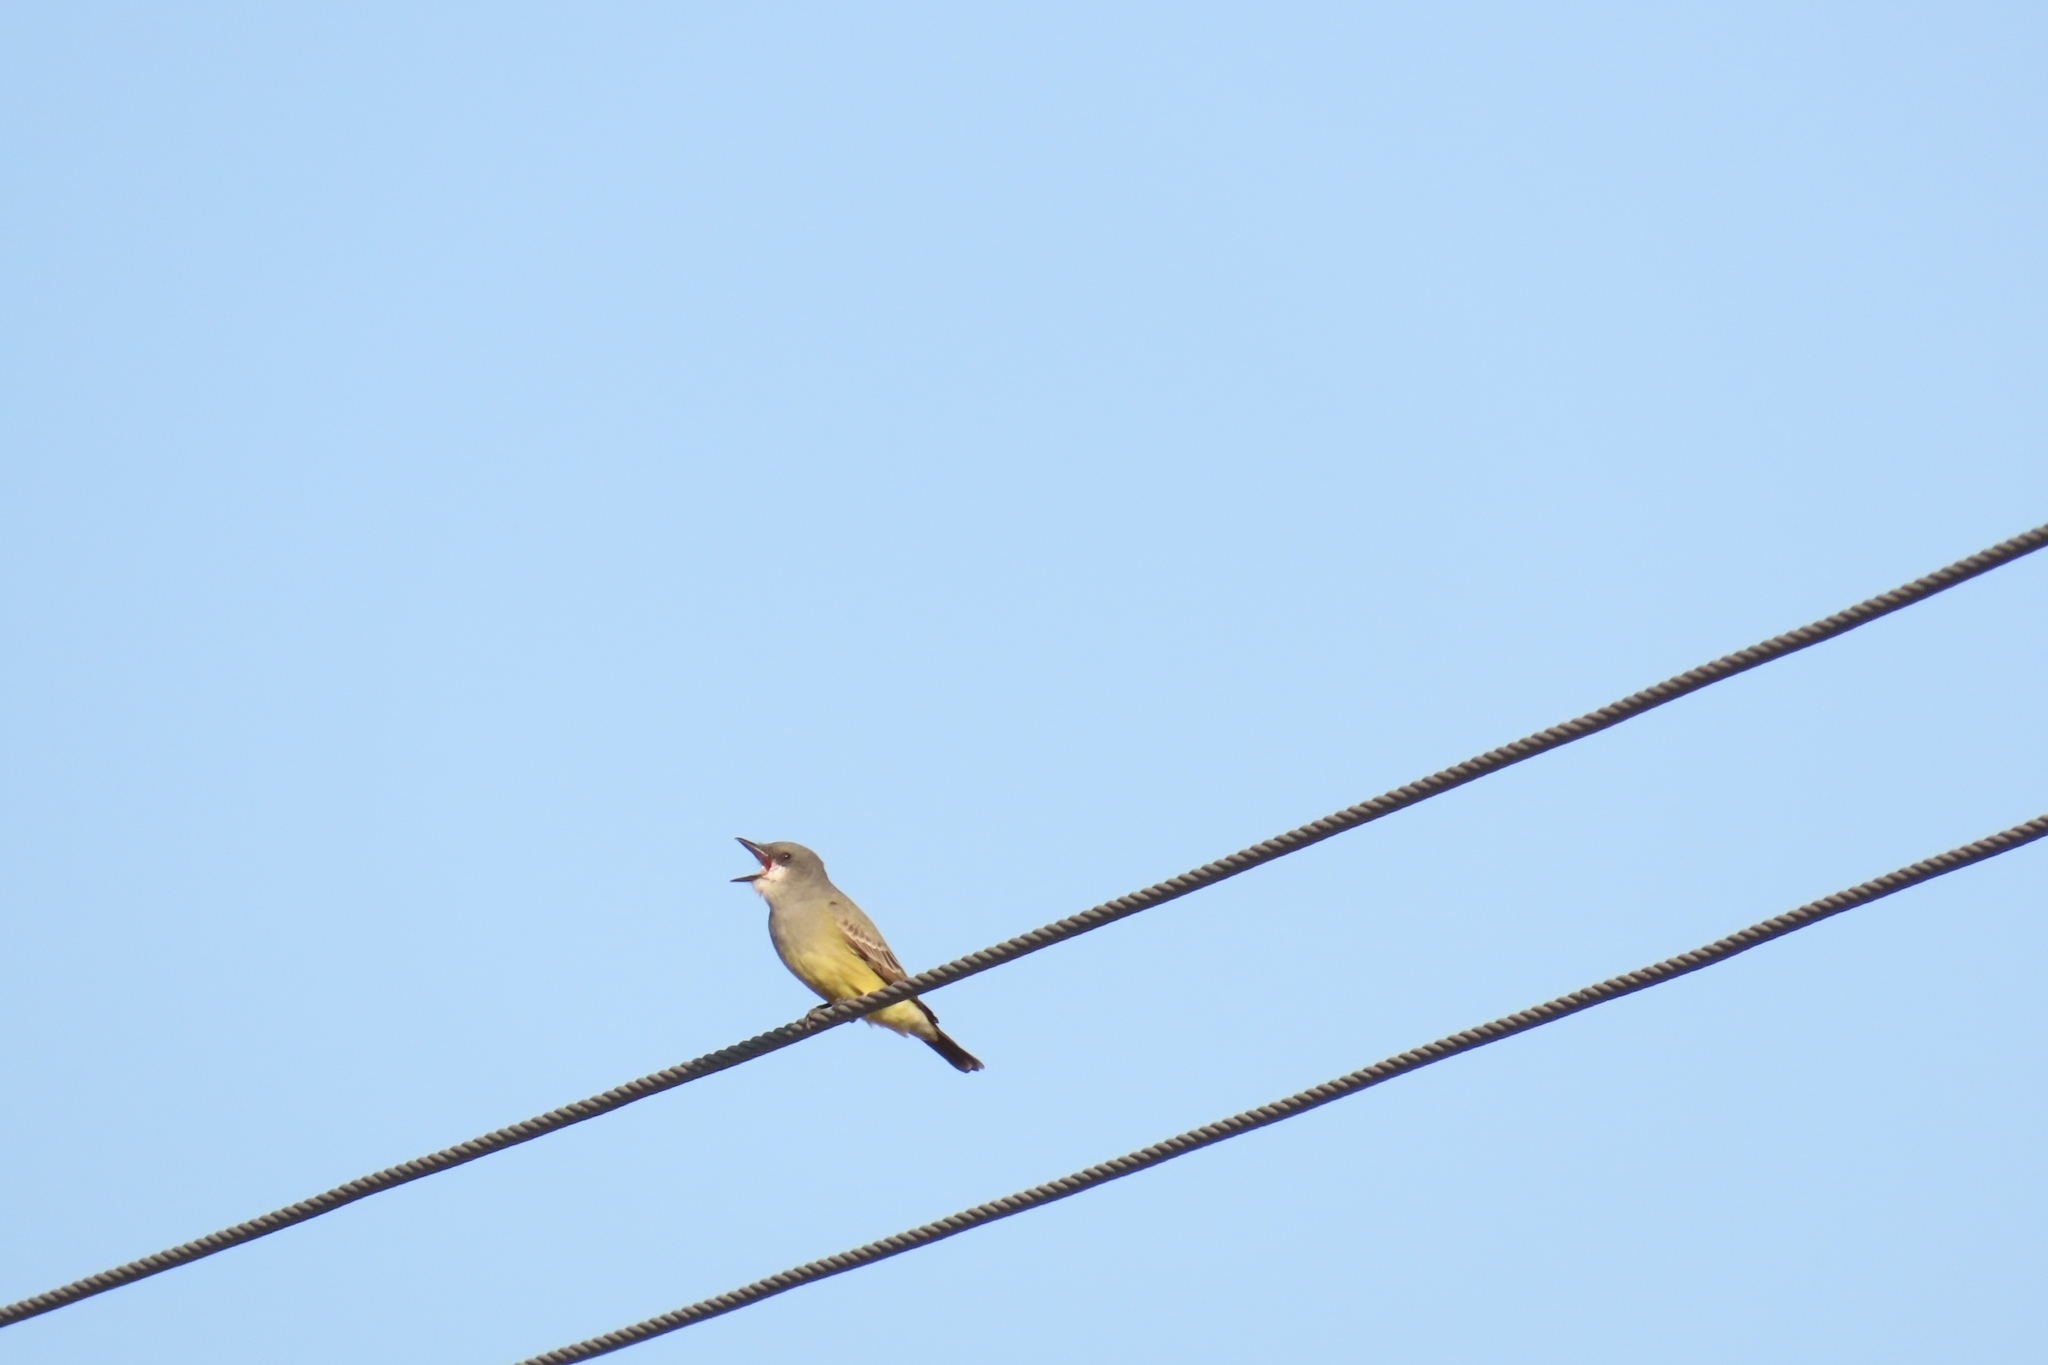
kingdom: Animalia
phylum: Chordata
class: Aves
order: Passeriformes
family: Tyrannidae
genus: Tyrannus
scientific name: Tyrannus vociferans
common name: Cassin's kingbird
